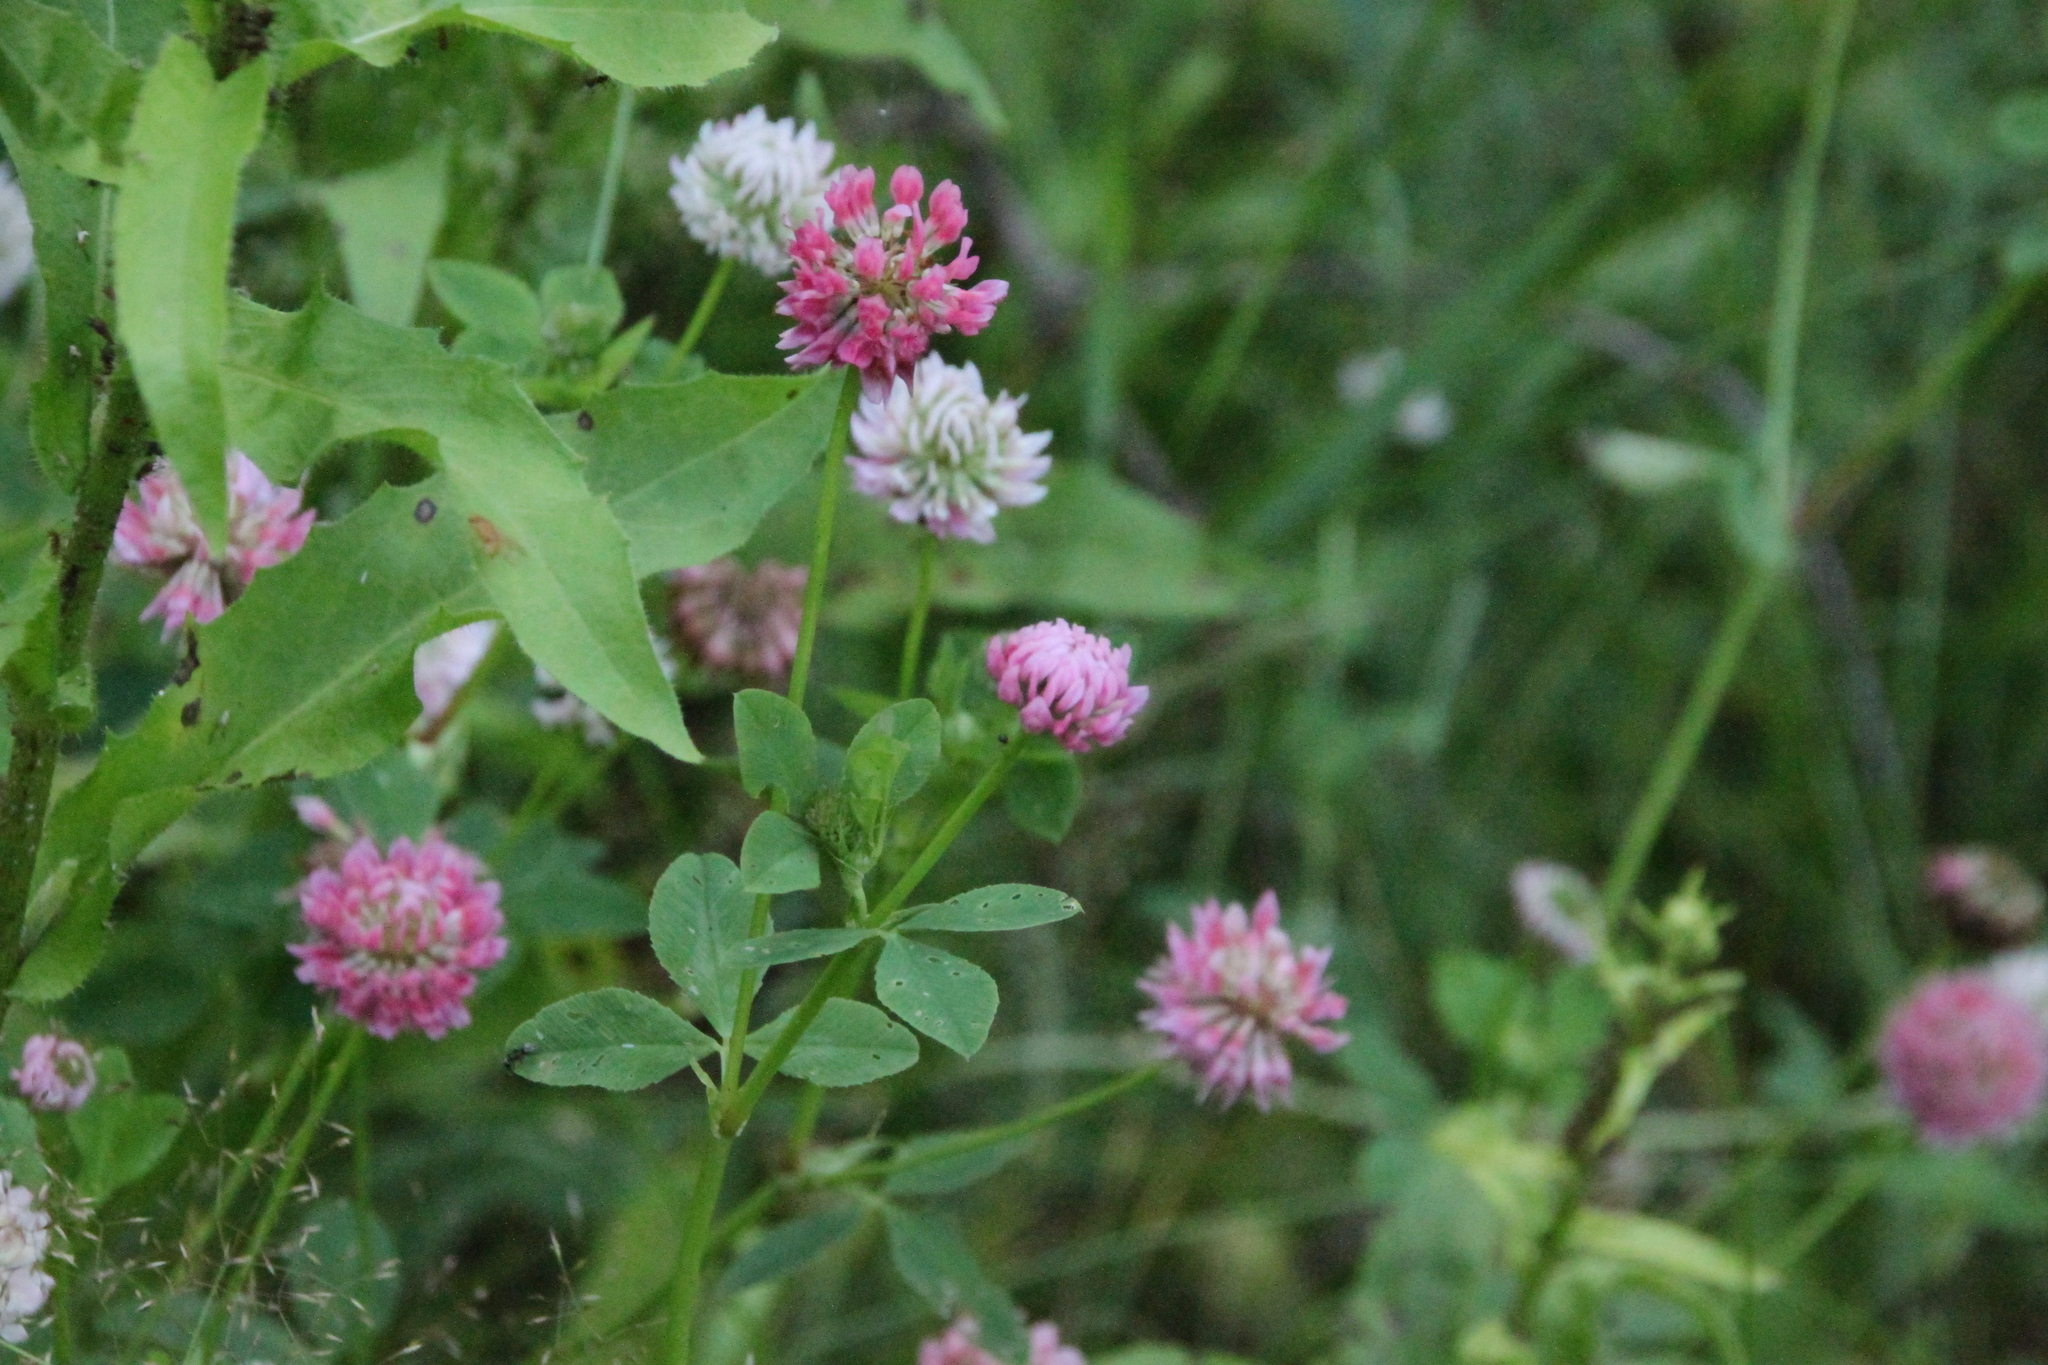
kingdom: Plantae
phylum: Tracheophyta
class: Magnoliopsida
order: Fabales
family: Fabaceae
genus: Trifolium
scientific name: Trifolium hybridum
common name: Alsike clover
